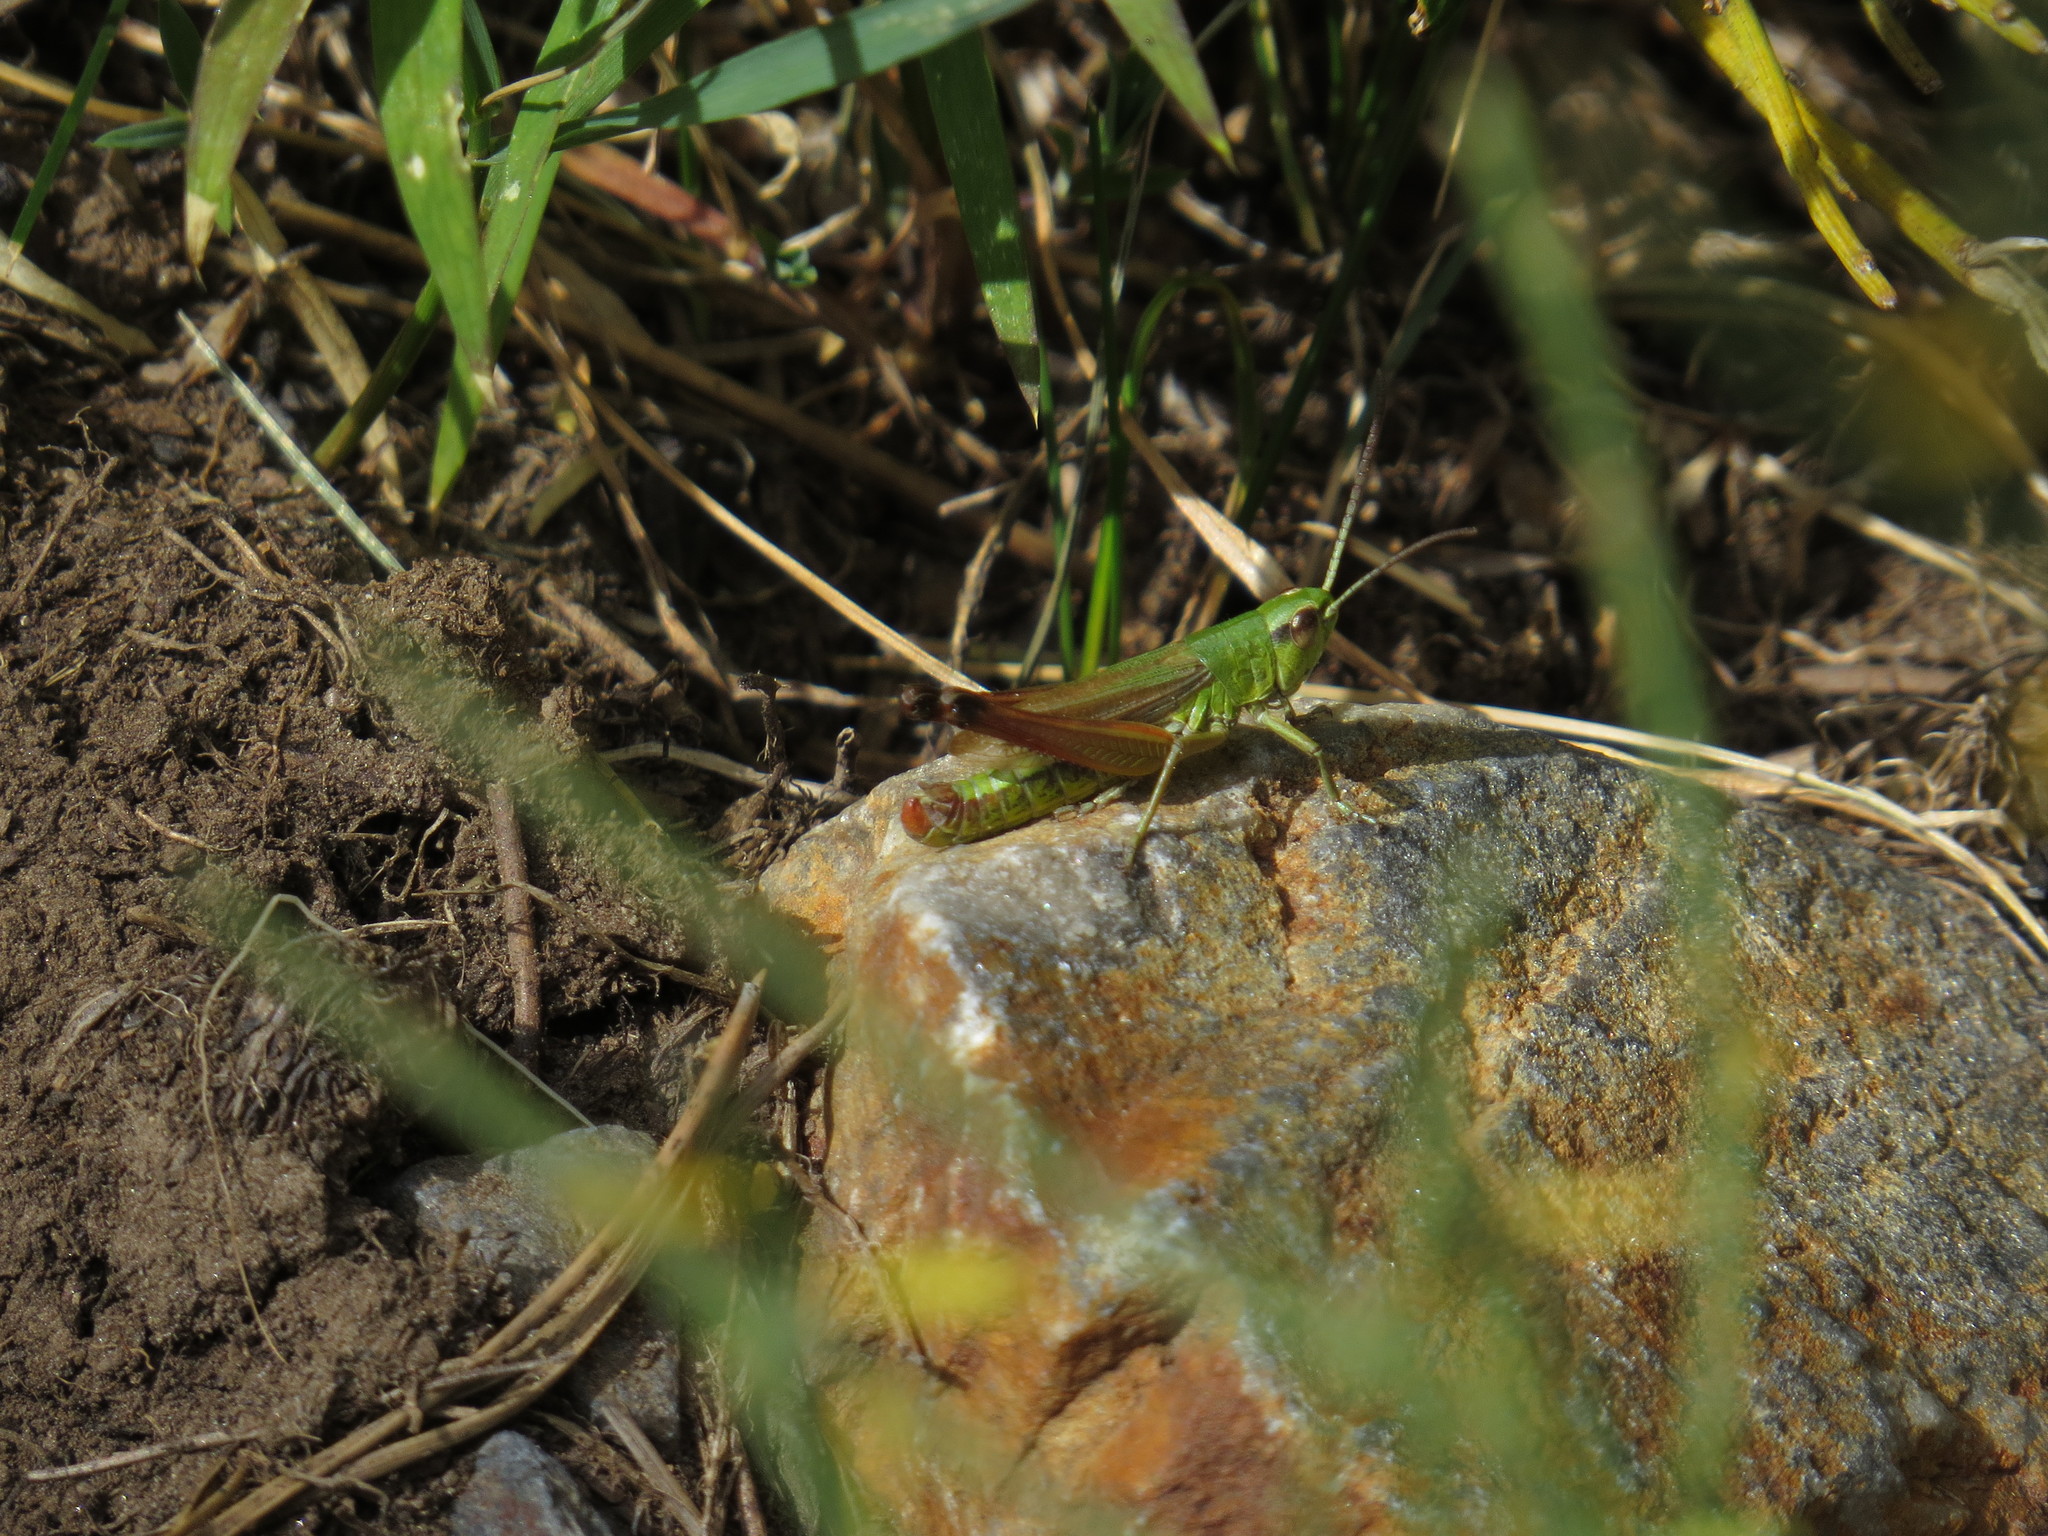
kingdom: Animalia
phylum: Arthropoda
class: Insecta
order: Orthoptera
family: Acrididae
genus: Pseudochorthippus
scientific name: Pseudochorthippus parallelus
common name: Meadow grasshopper
